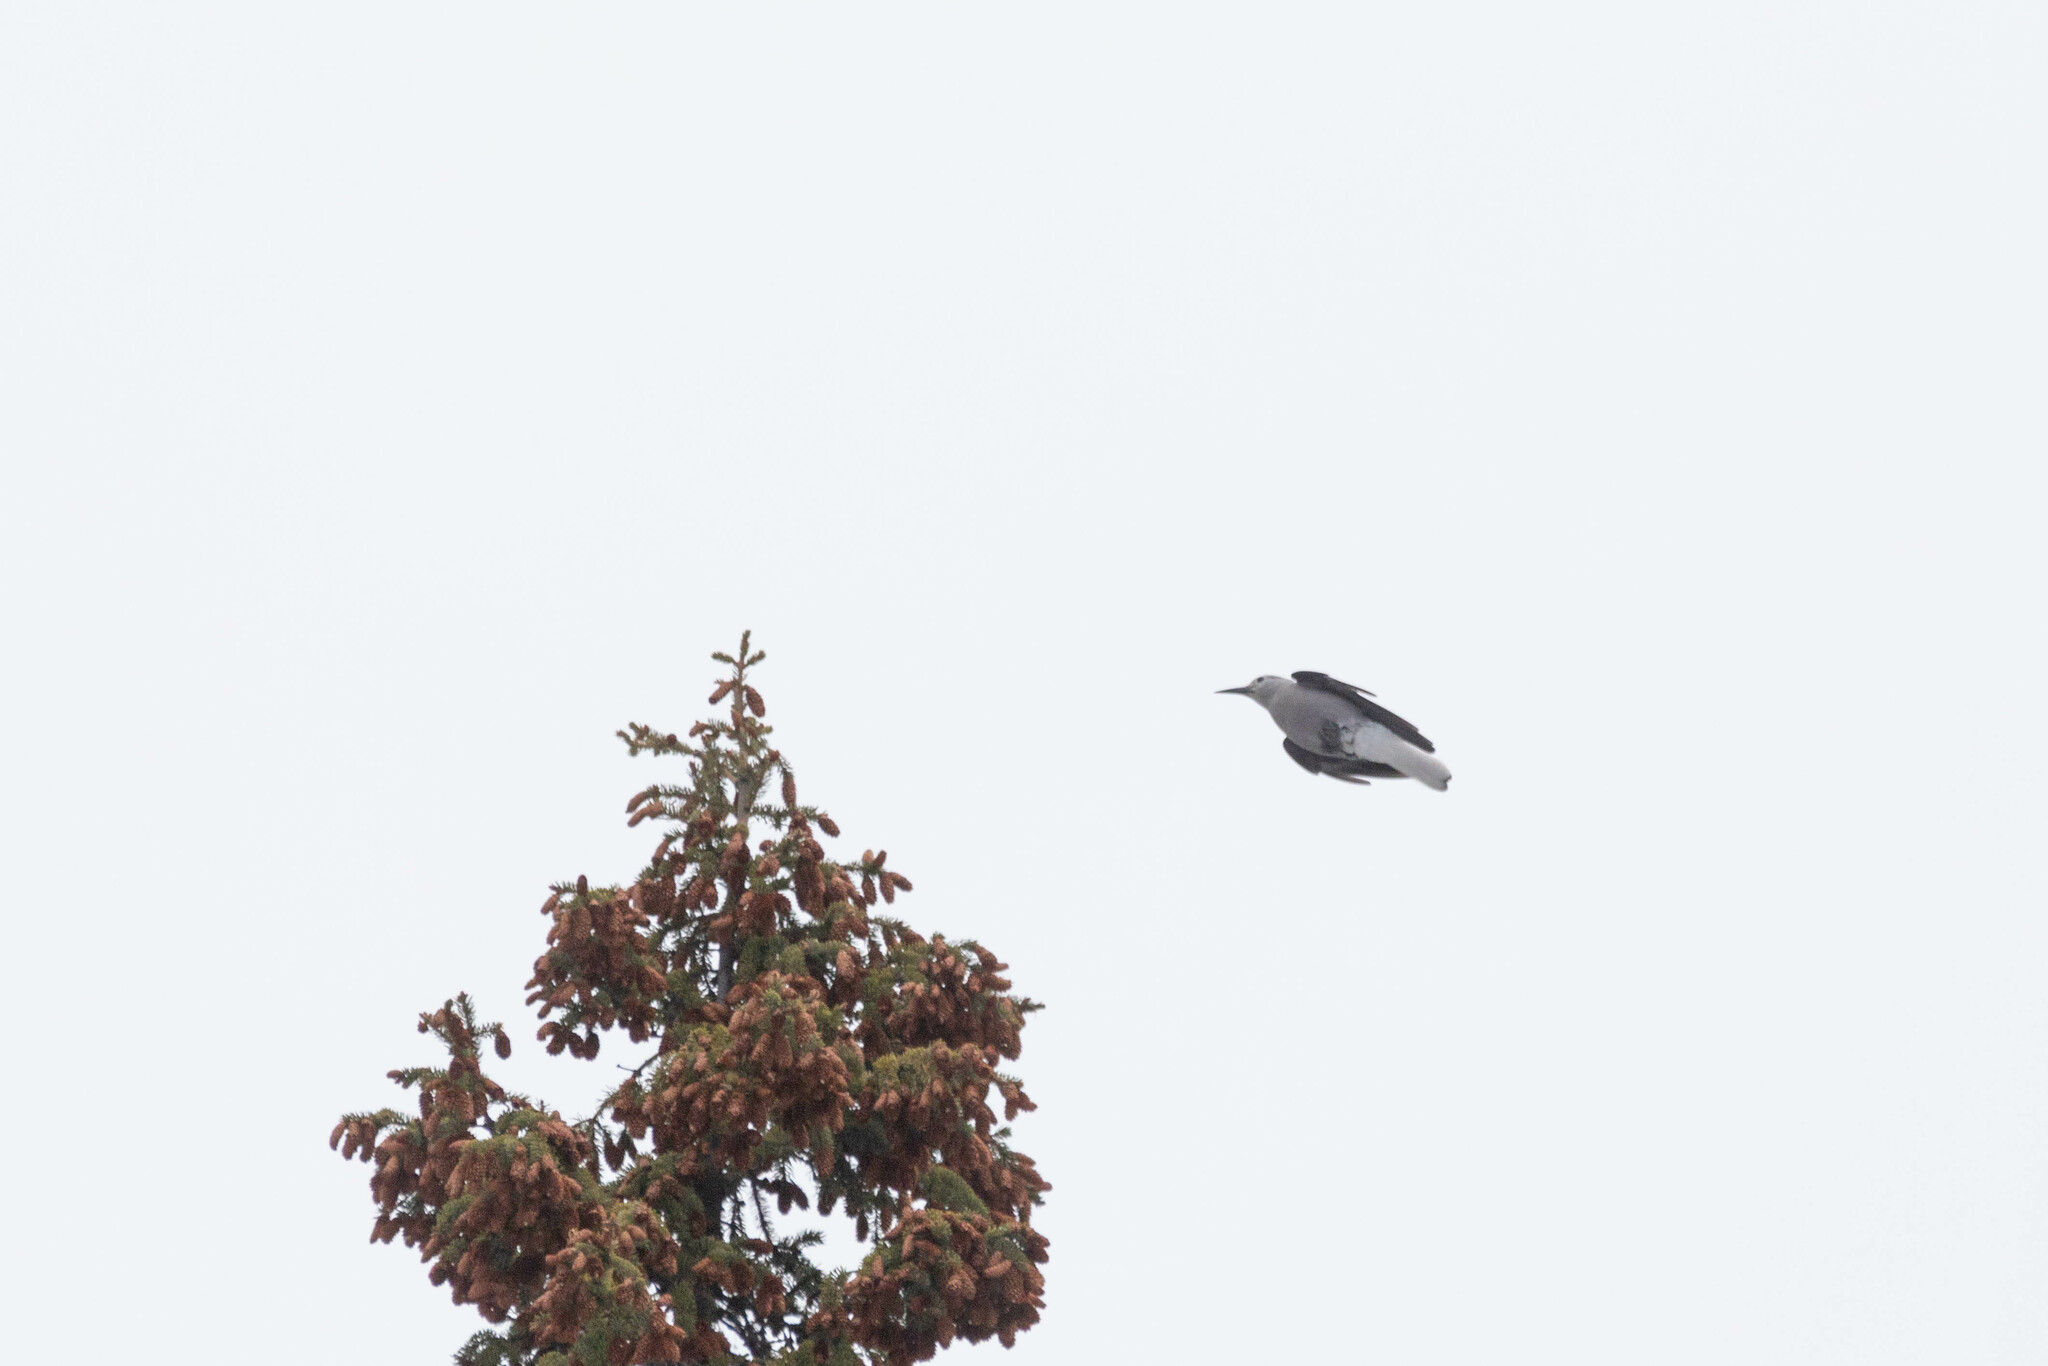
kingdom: Animalia
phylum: Chordata
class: Aves
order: Passeriformes
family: Corvidae
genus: Nucifraga
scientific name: Nucifraga columbiana
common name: Clark's nutcracker
